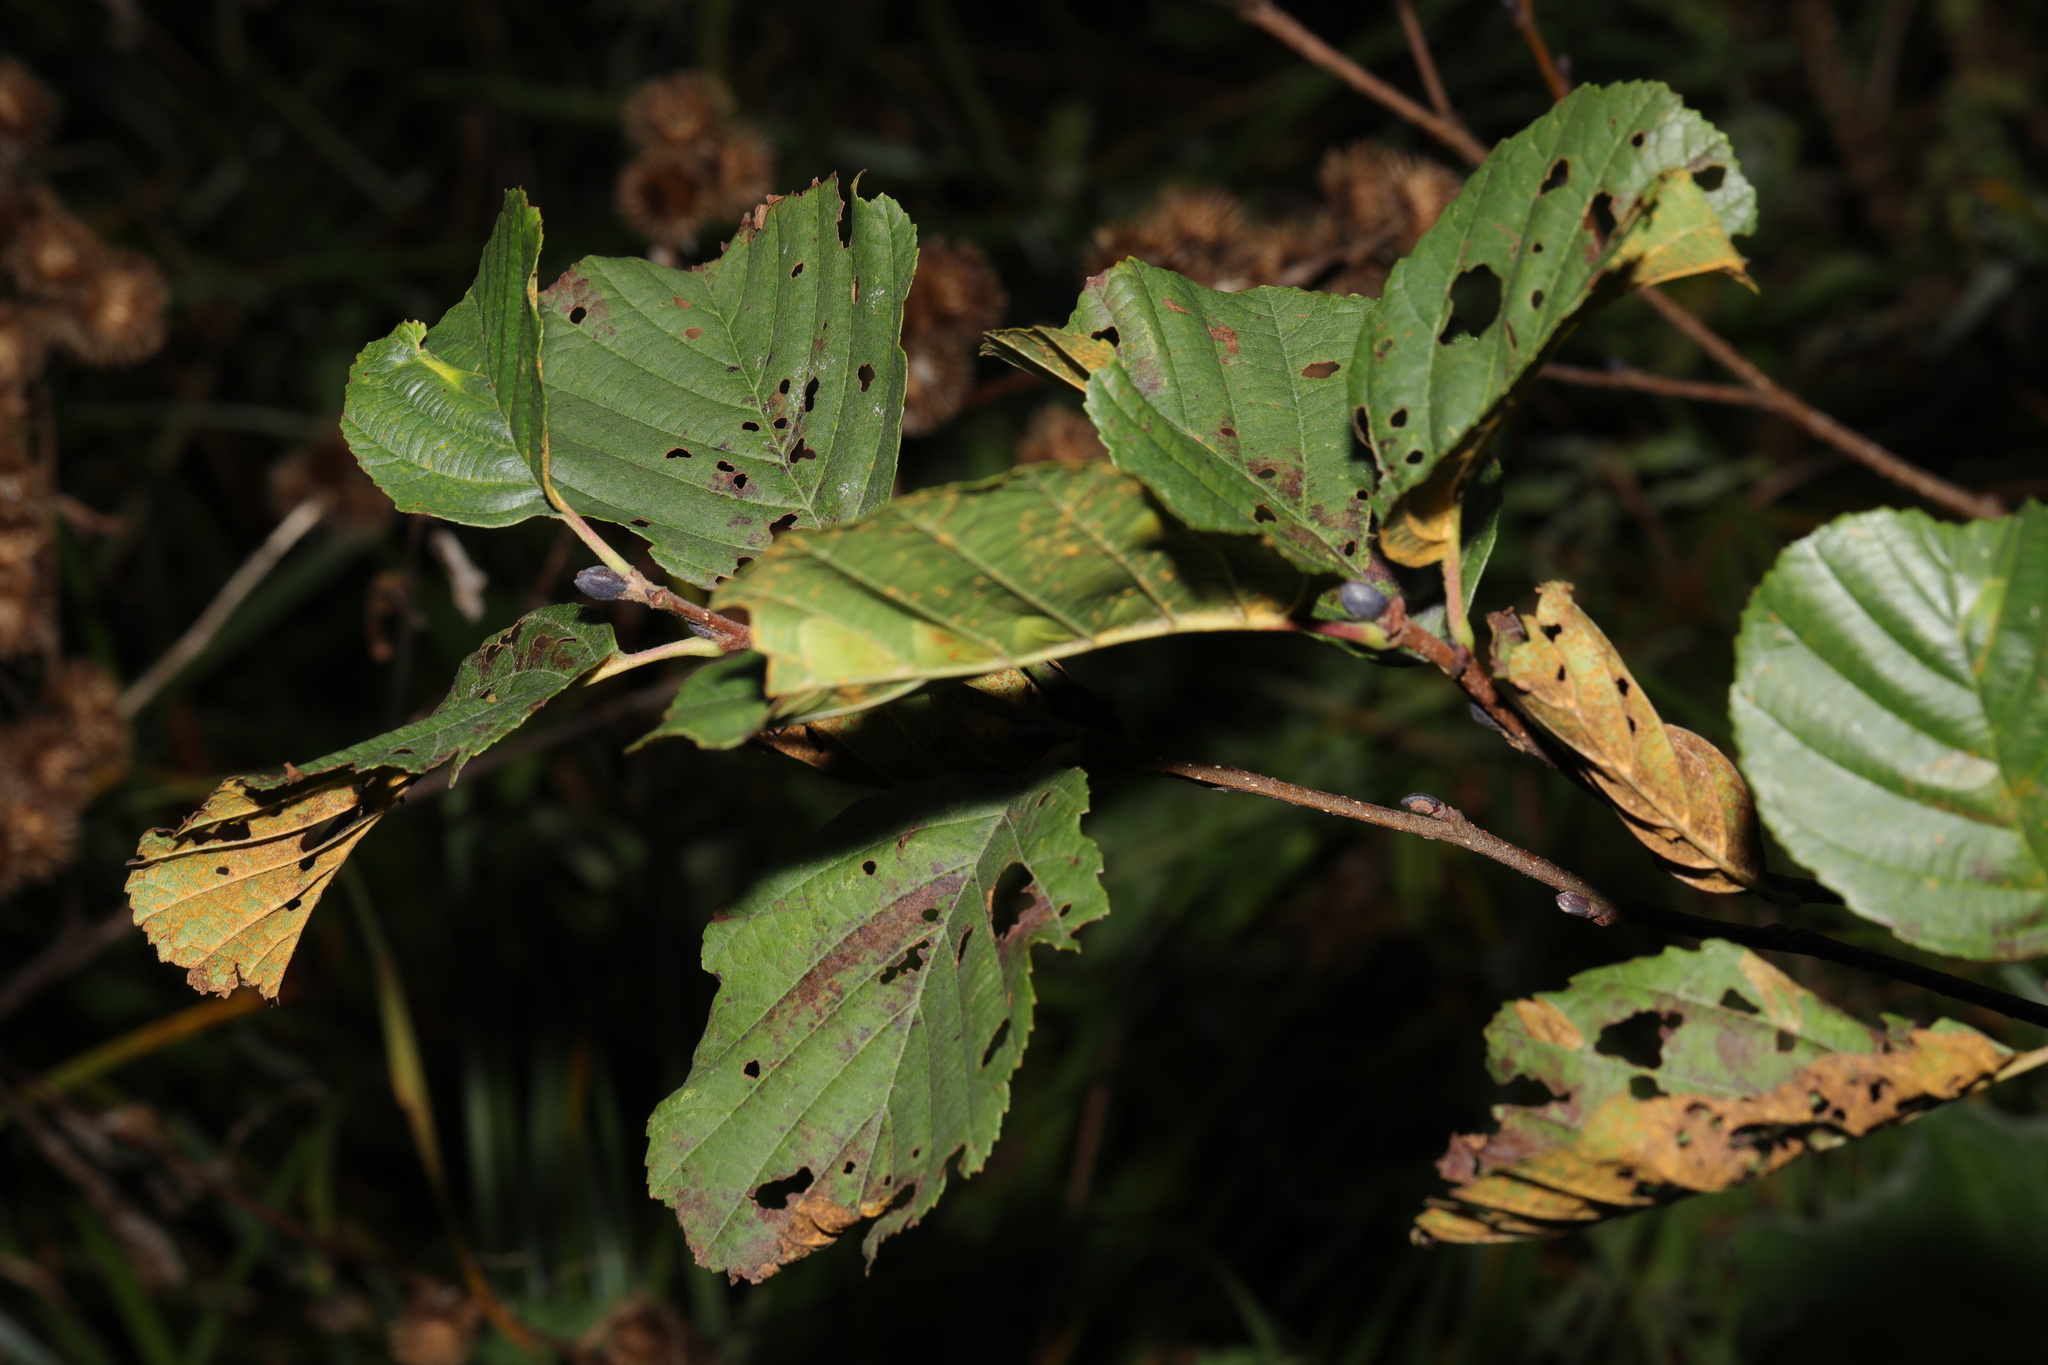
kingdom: Plantae
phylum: Tracheophyta
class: Magnoliopsida
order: Fagales
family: Betulaceae
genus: Alnus
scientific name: Alnus glutinosa
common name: Black alder
